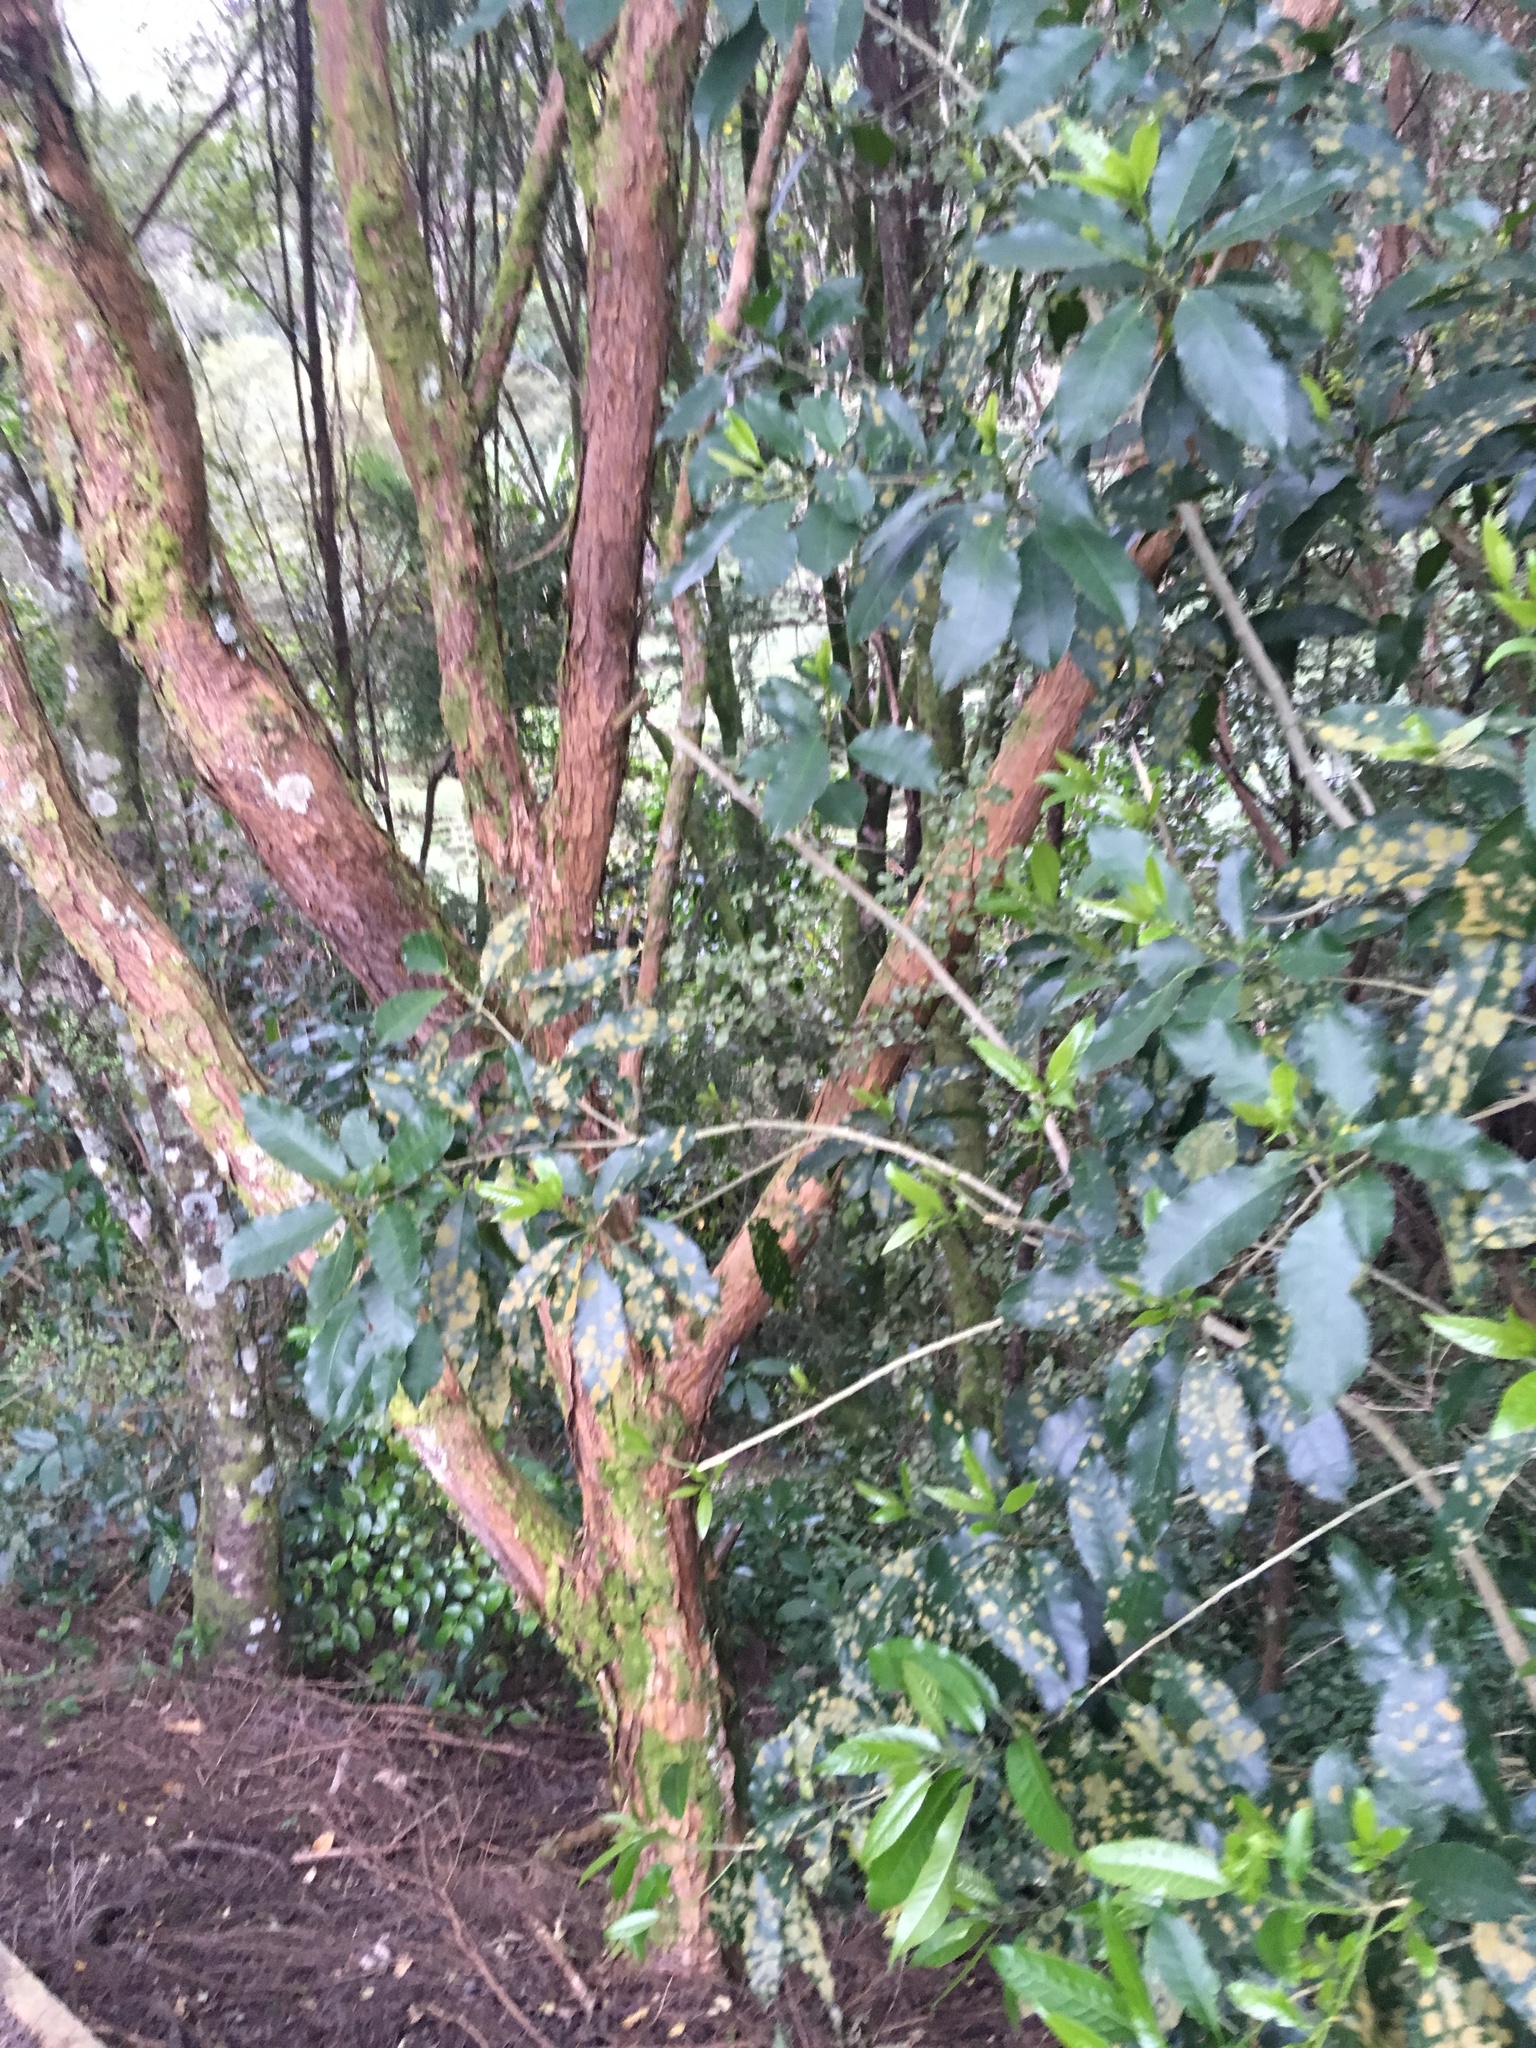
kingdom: Plantae
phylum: Chlorophyta
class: Ulvophyceae
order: Trentepohliales
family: Trentepohliaceae
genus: Cephaleuros
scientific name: Cephaleuros
